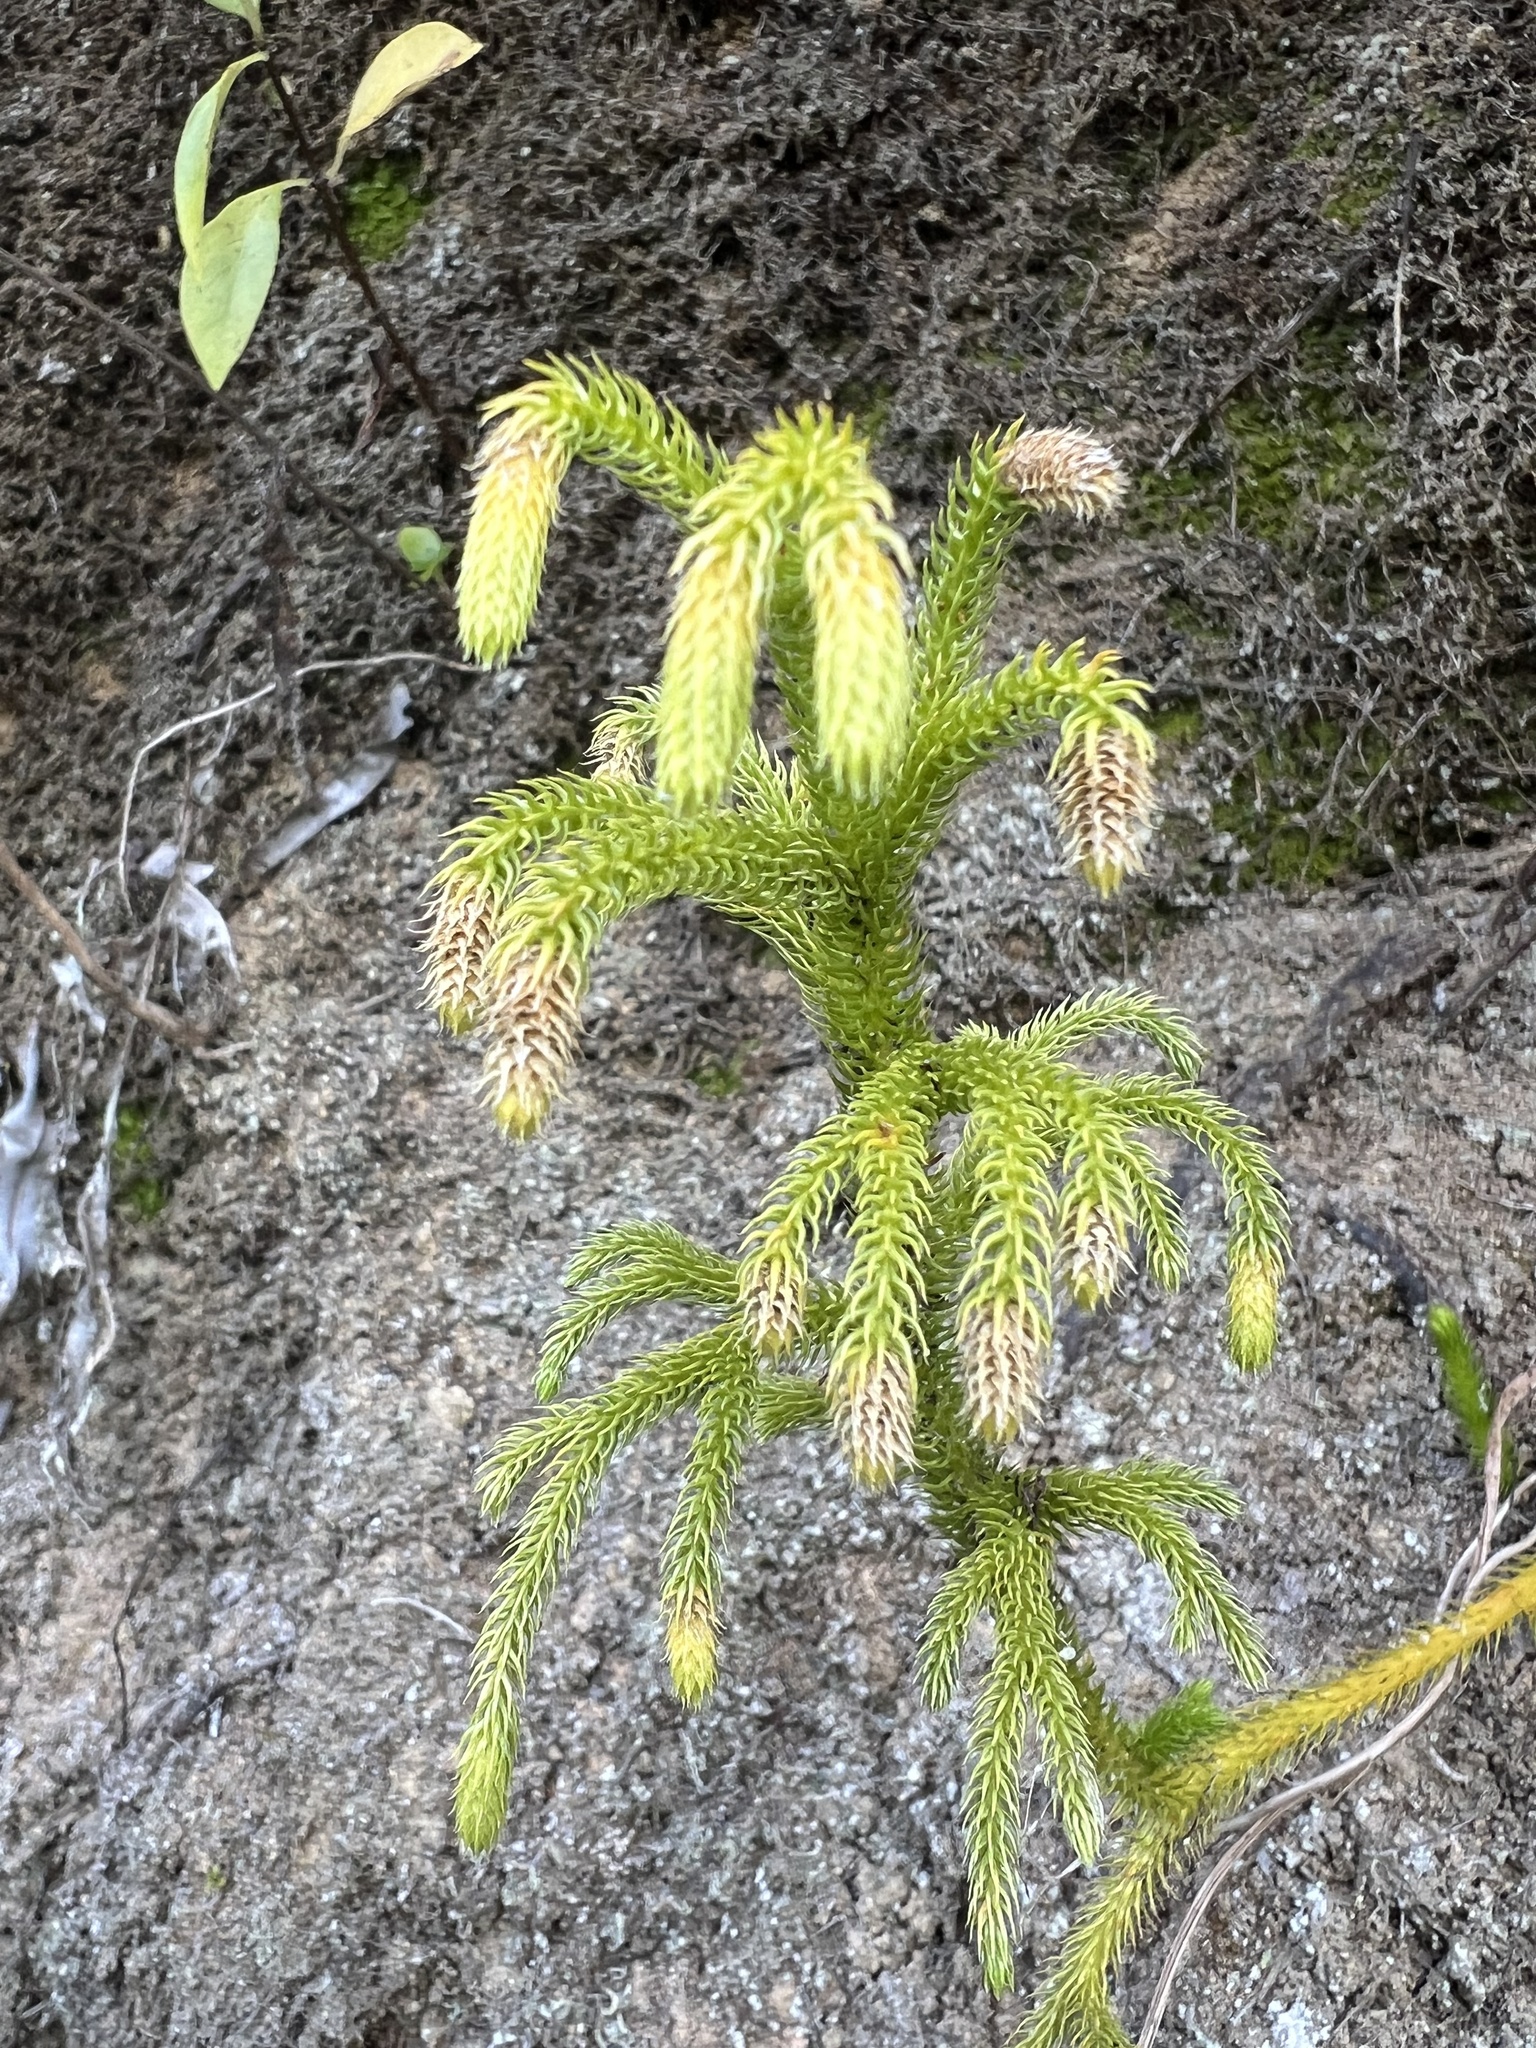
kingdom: Plantae
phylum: Tracheophyta
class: Lycopodiopsida
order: Lycopodiales
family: Lycopodiaceae
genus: Palhinhaea
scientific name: Palhinhaea cernua
